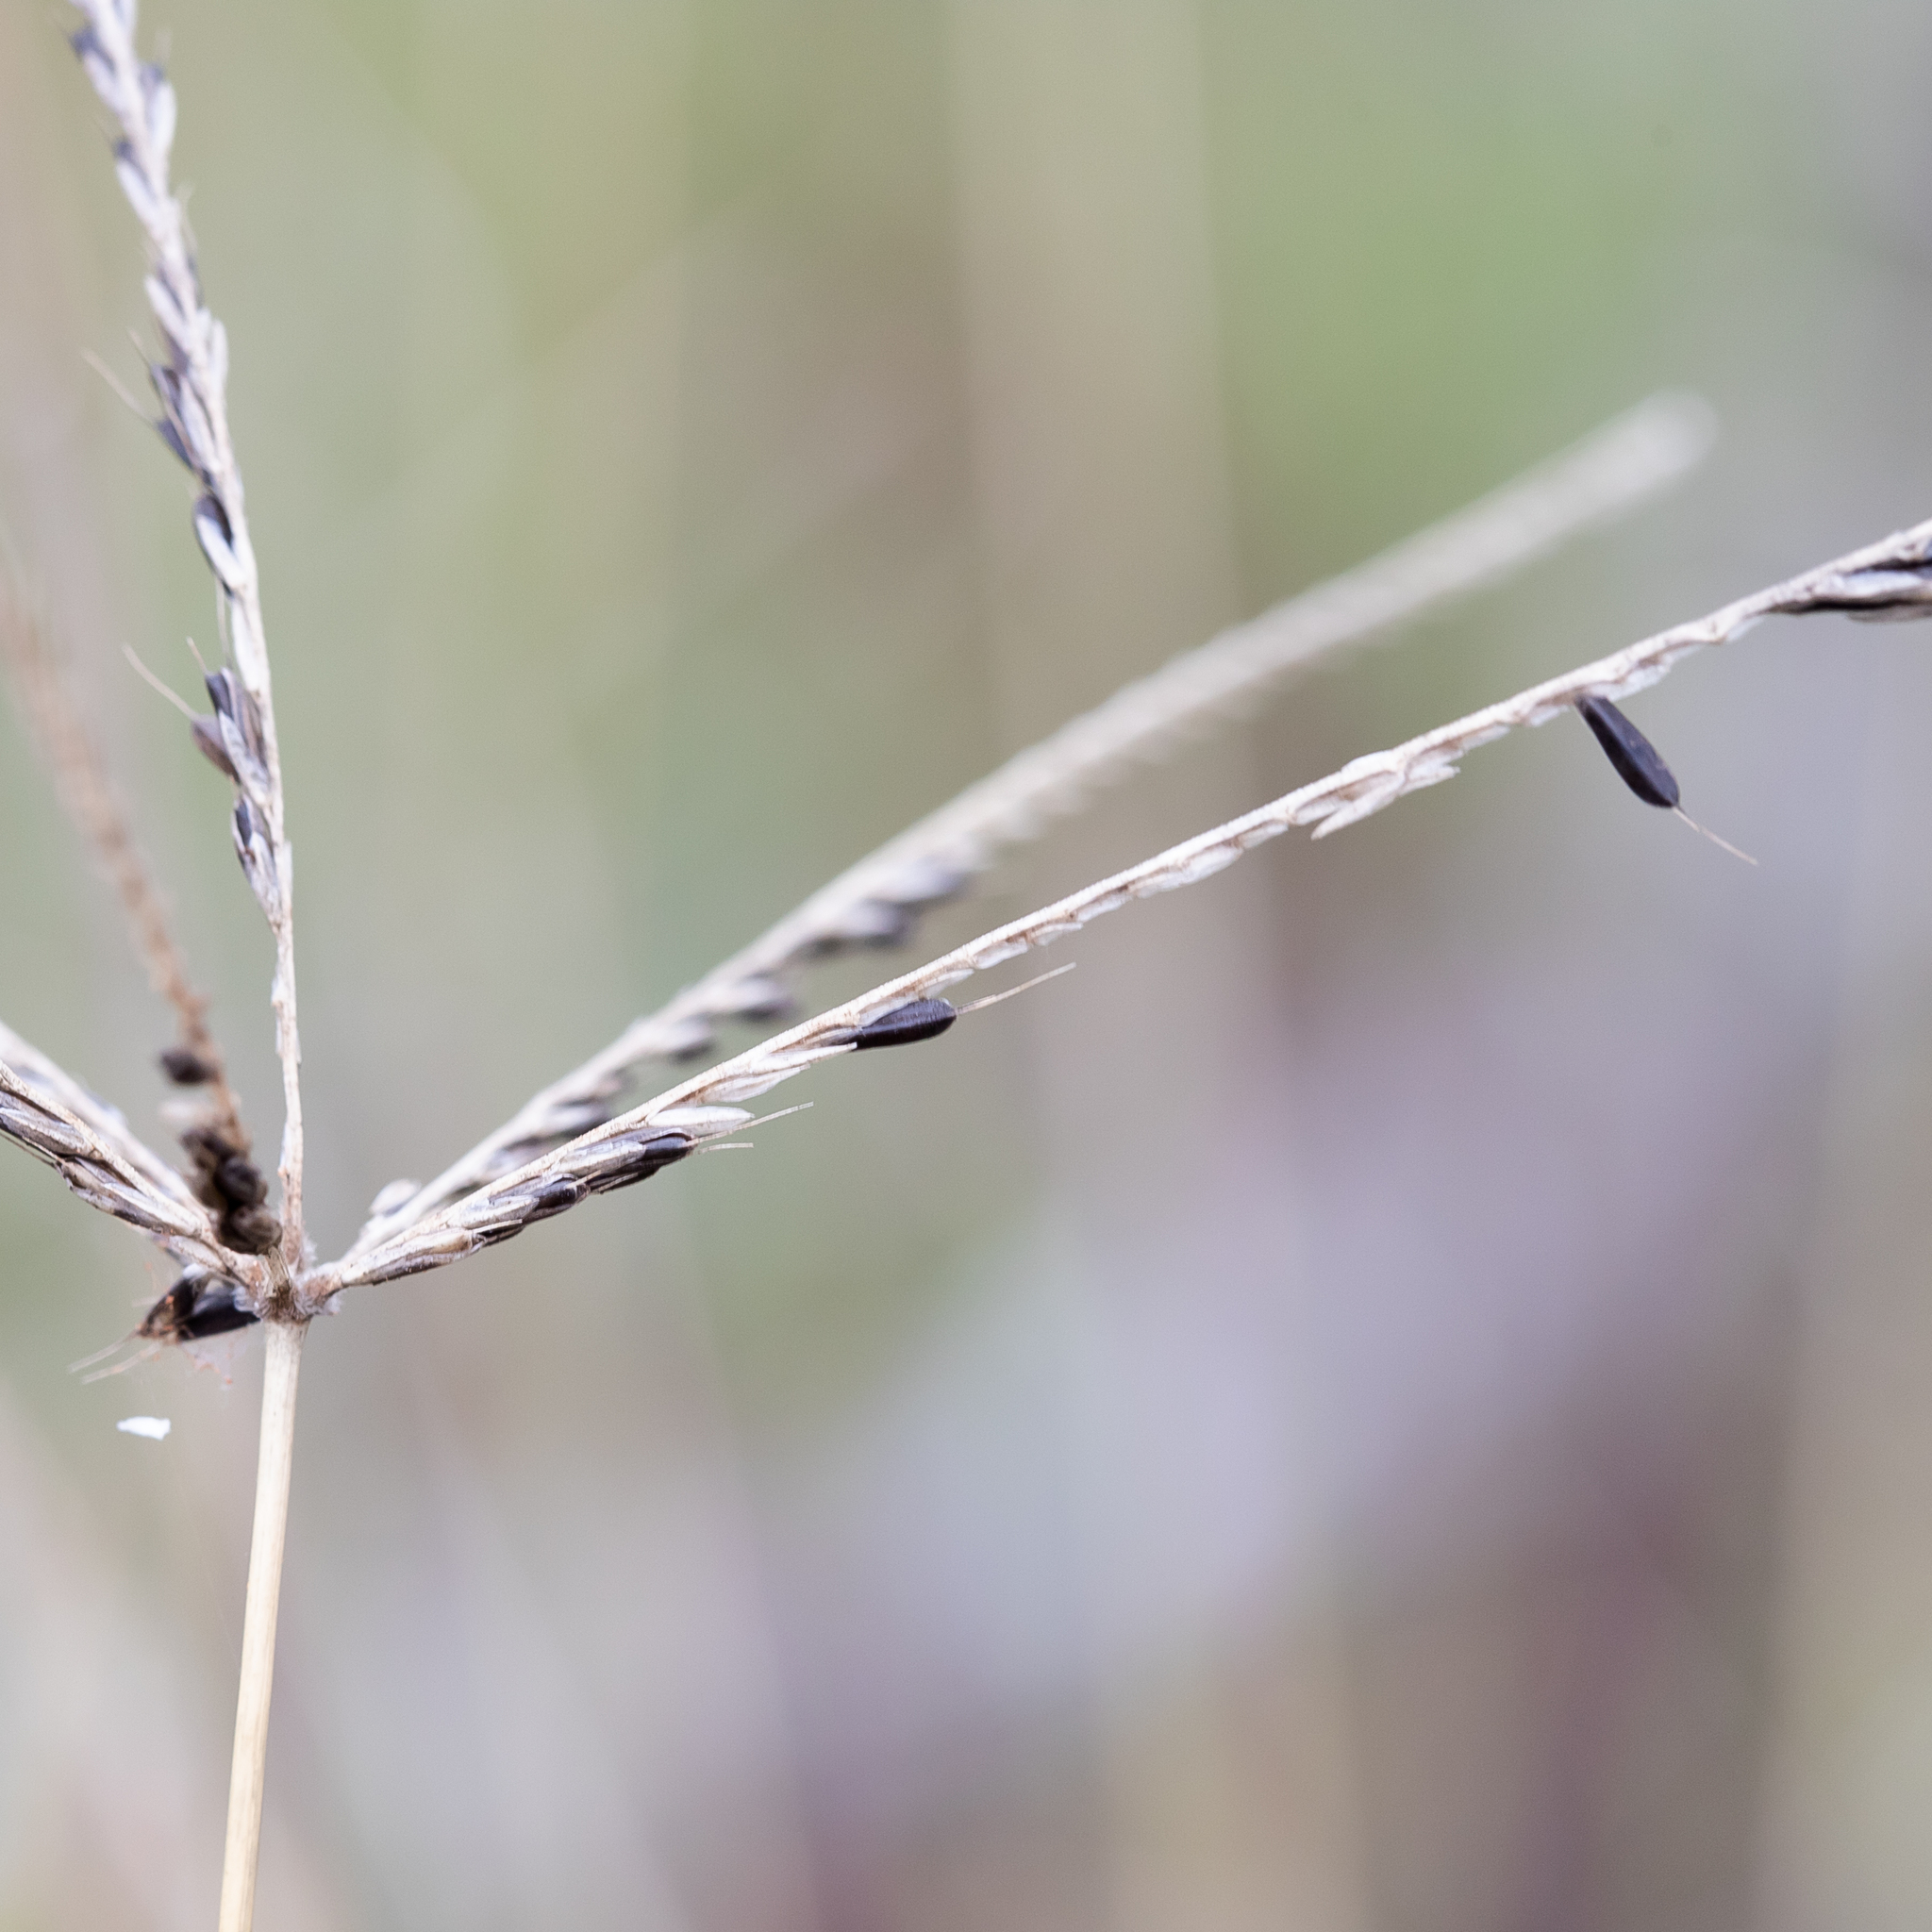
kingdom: Plantae
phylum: Tracheophyta
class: Liliopsida
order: Poales
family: Poaceae
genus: Chloris
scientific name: Chloris ventricosa
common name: Australian windmill grass
